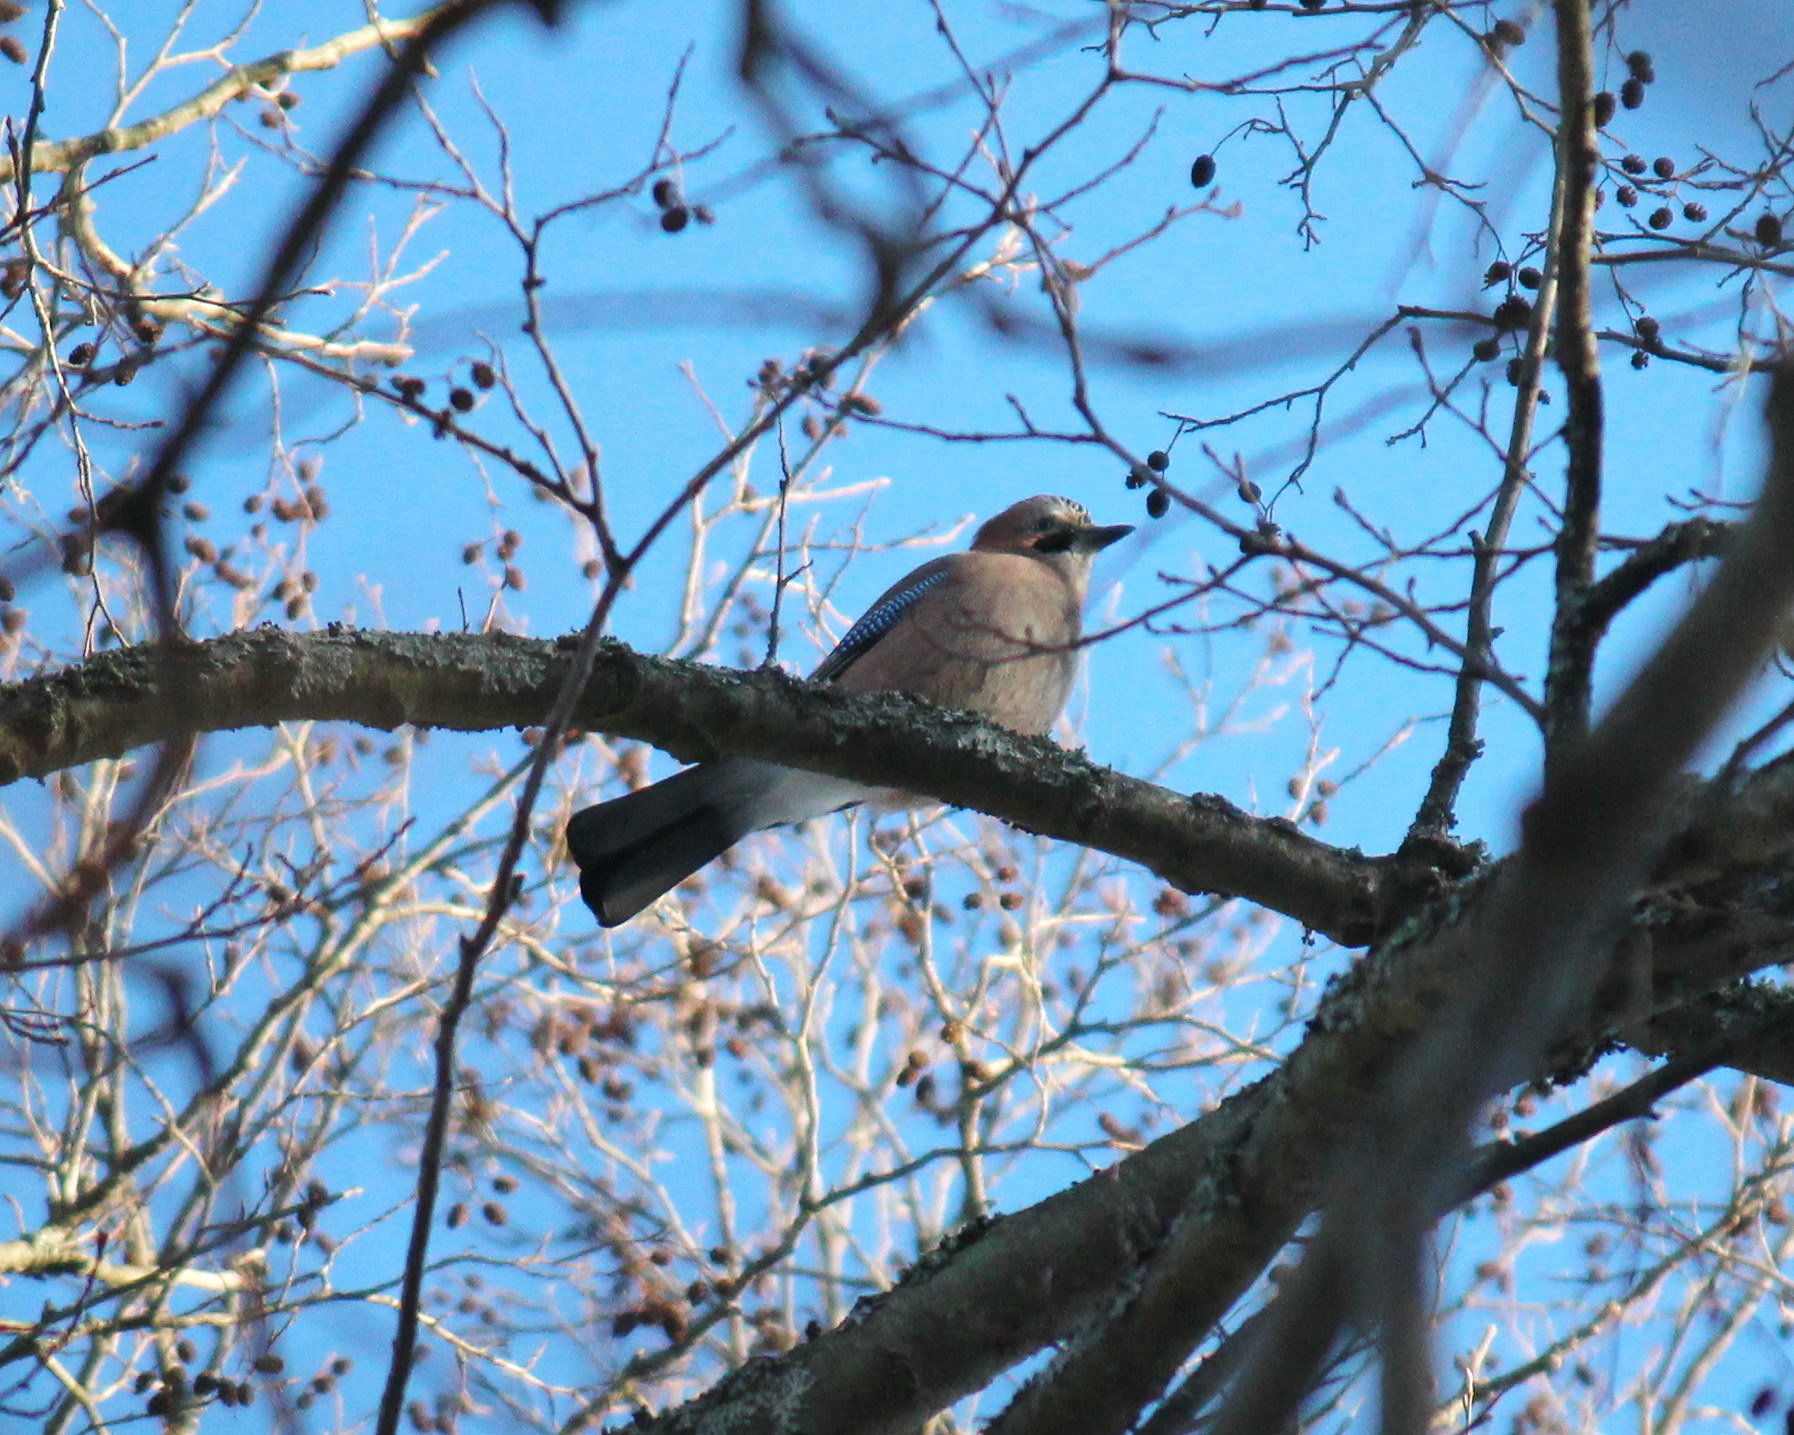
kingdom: Animalia
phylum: Chordata
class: Aves
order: Passeriformes
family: Corvidae
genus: Garrulus
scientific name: Garrulus glandarius
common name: Eurasian jay
